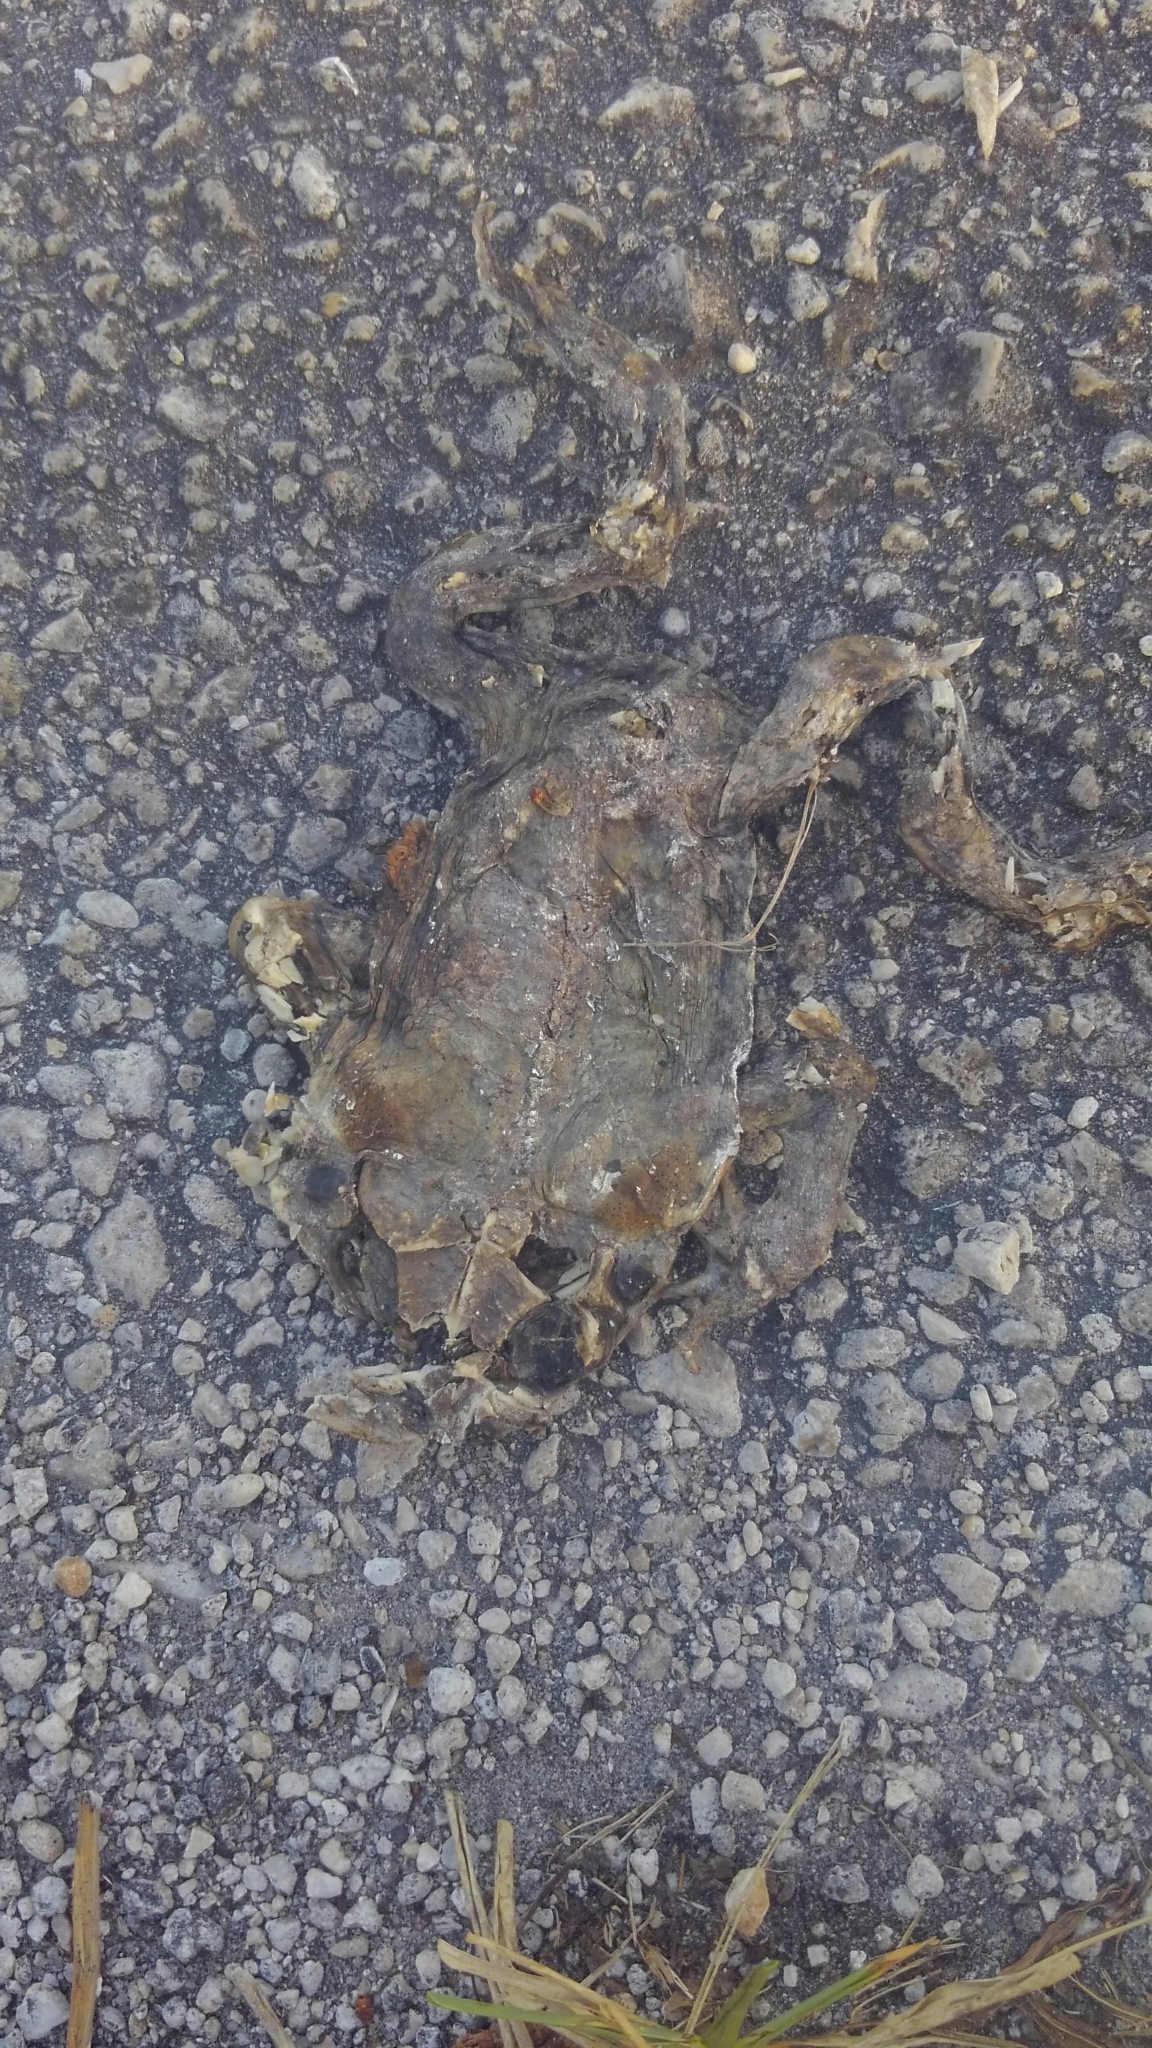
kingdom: Animalia
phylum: Chordata
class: Amphibia
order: Anura
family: Bufonidae
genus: Rhinella
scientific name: Rhinella marina
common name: Cane toad
